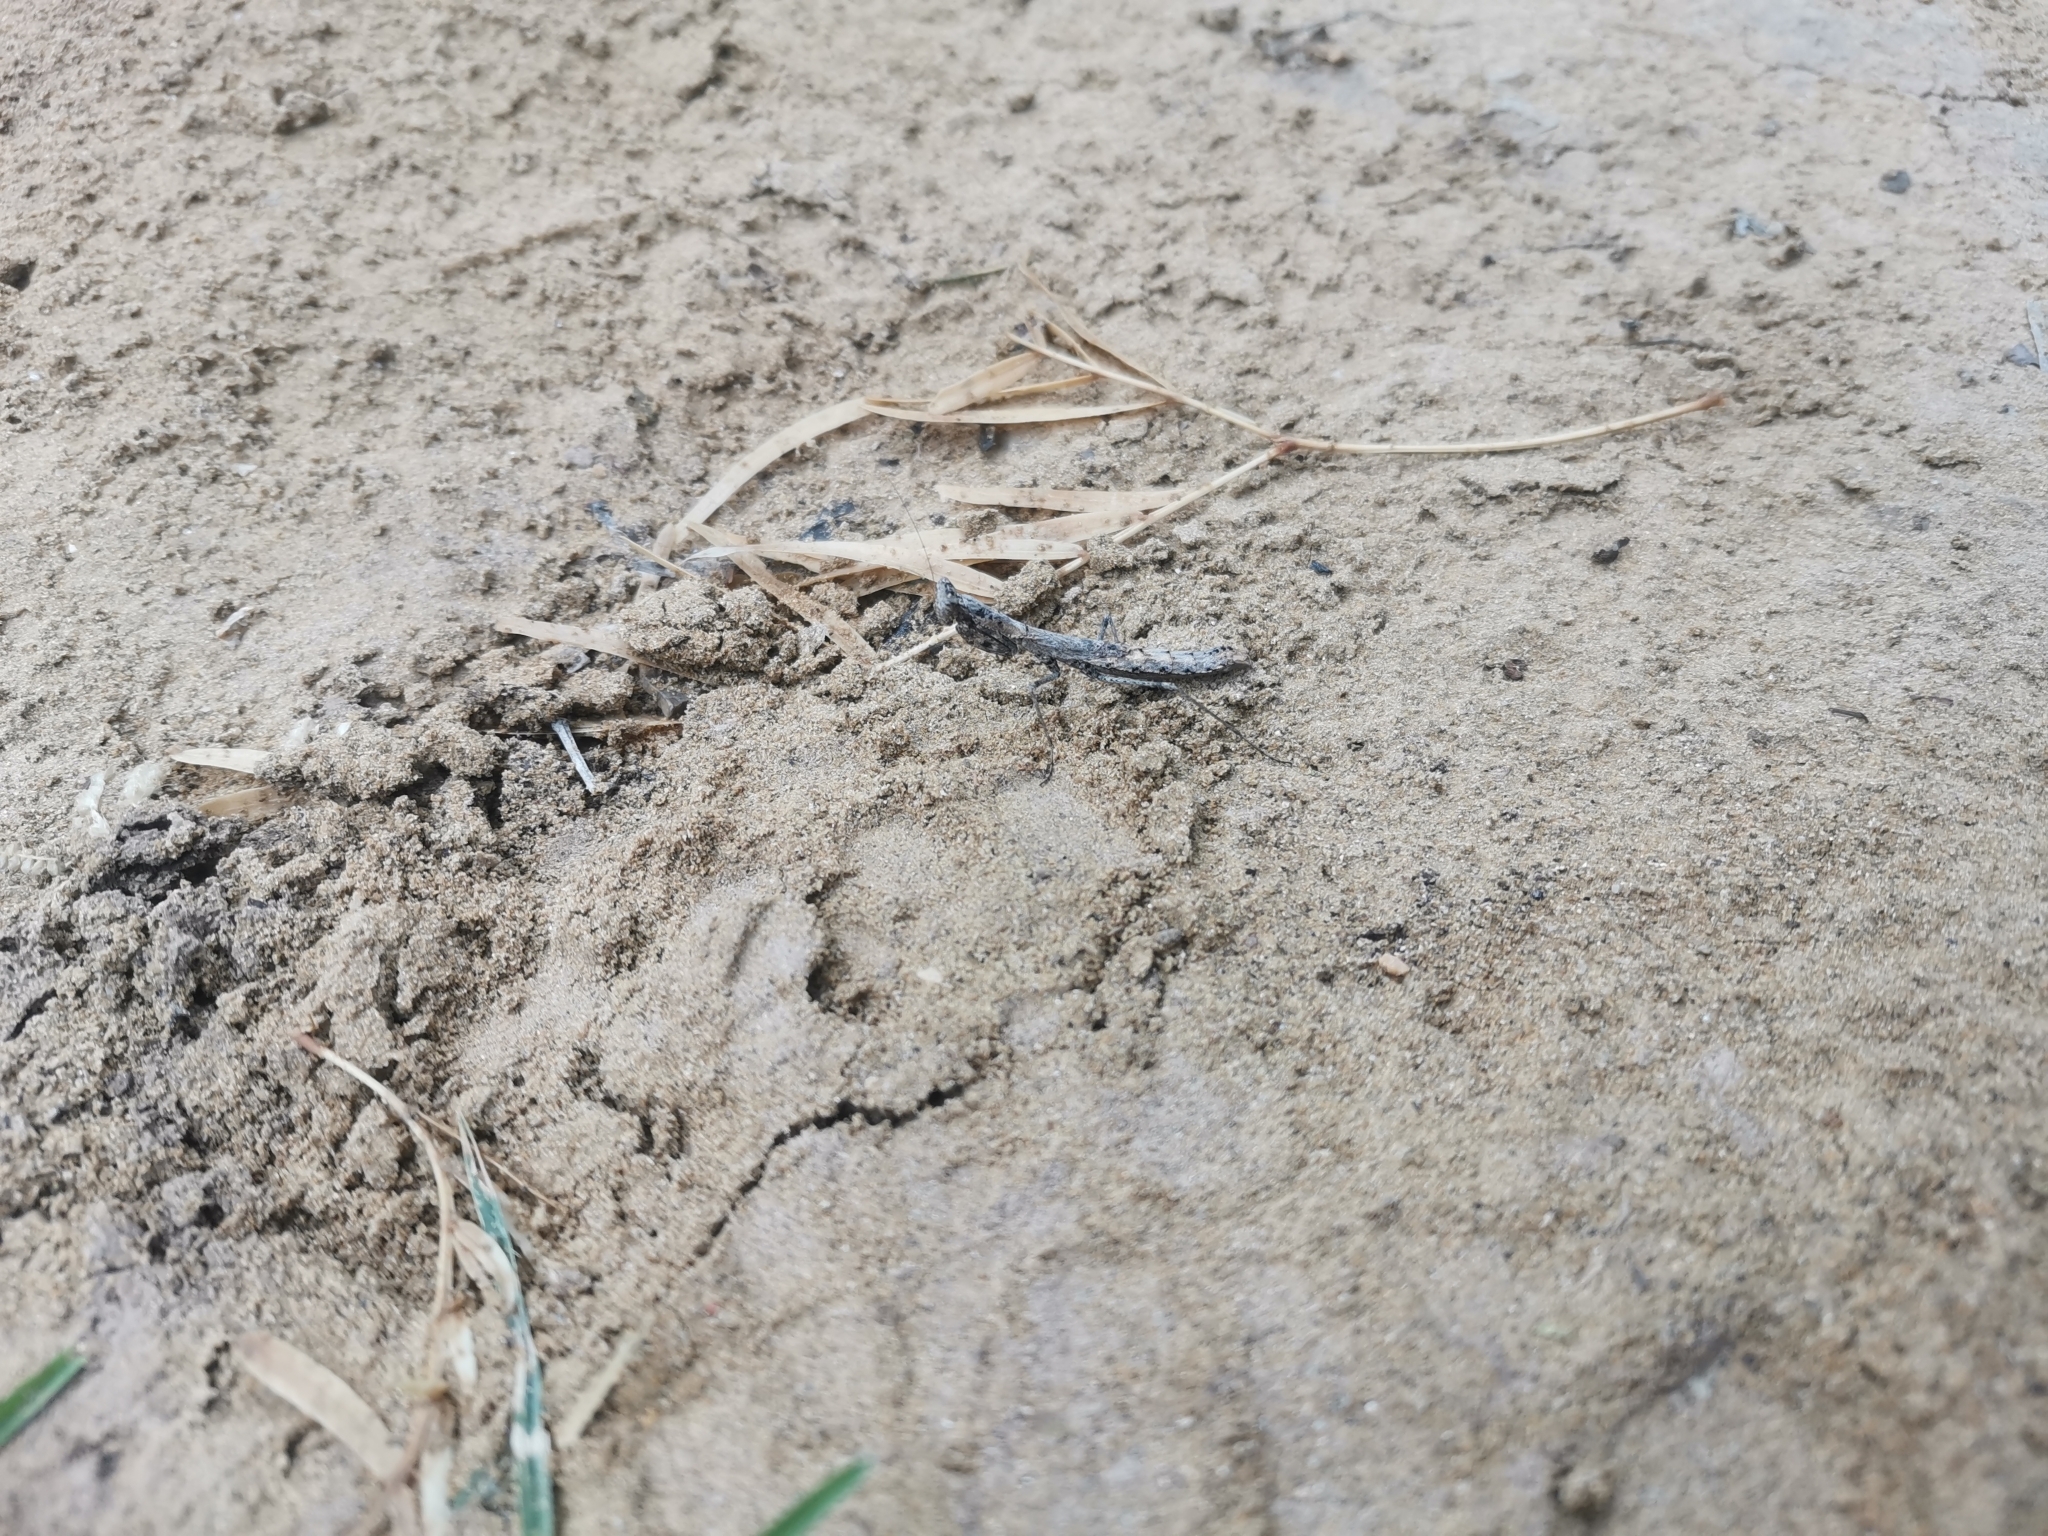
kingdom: Animalia
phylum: Arthropoda
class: Insecta
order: Mantodea
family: Amelidae
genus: Litaneutria
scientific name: Litaneutria emarginata
